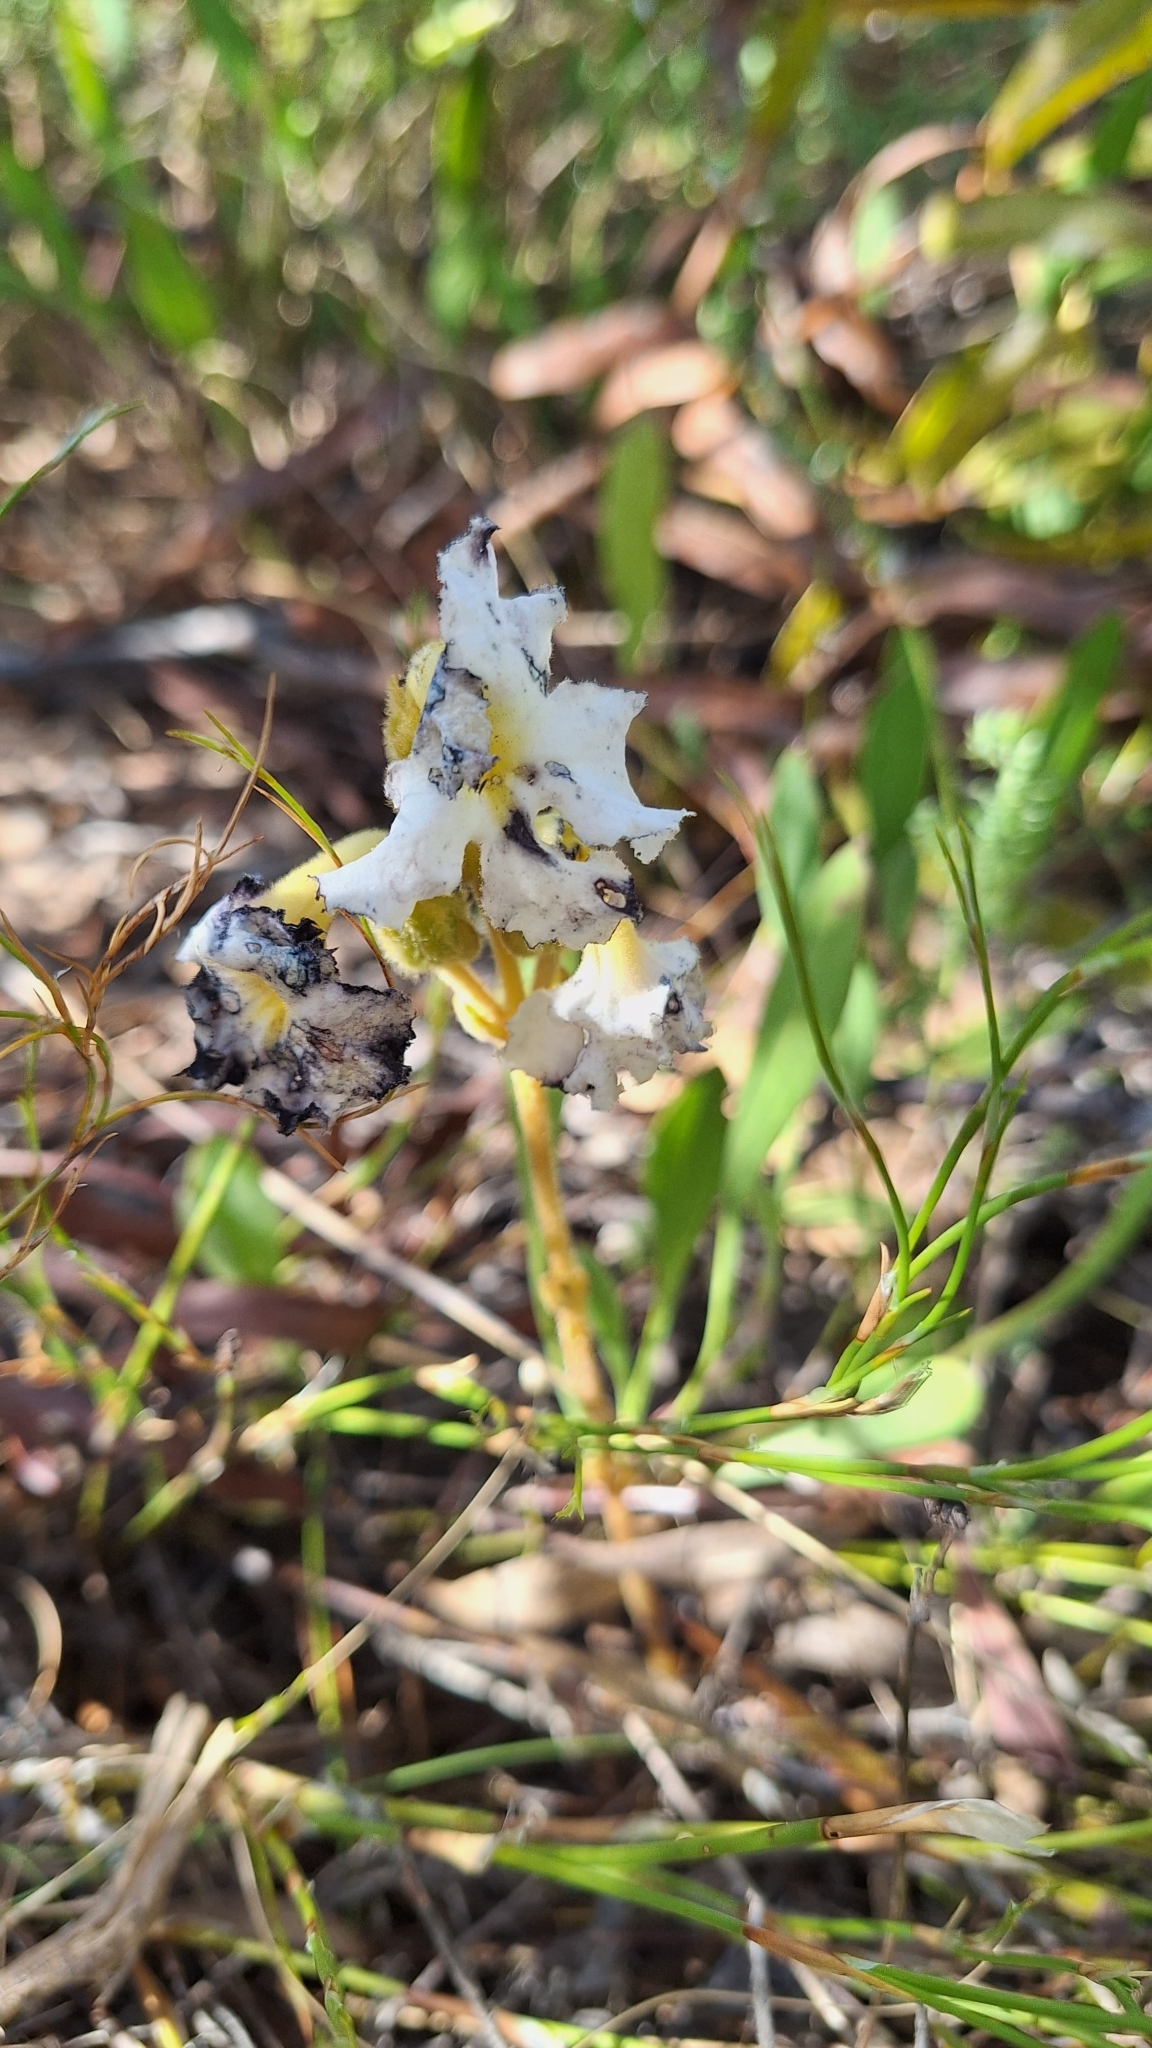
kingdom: Plantae
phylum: Tracheophyta
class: Magnoliopsida
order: Lamiales
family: Orobanchaceae
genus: Harveya
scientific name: Harveya capensis
